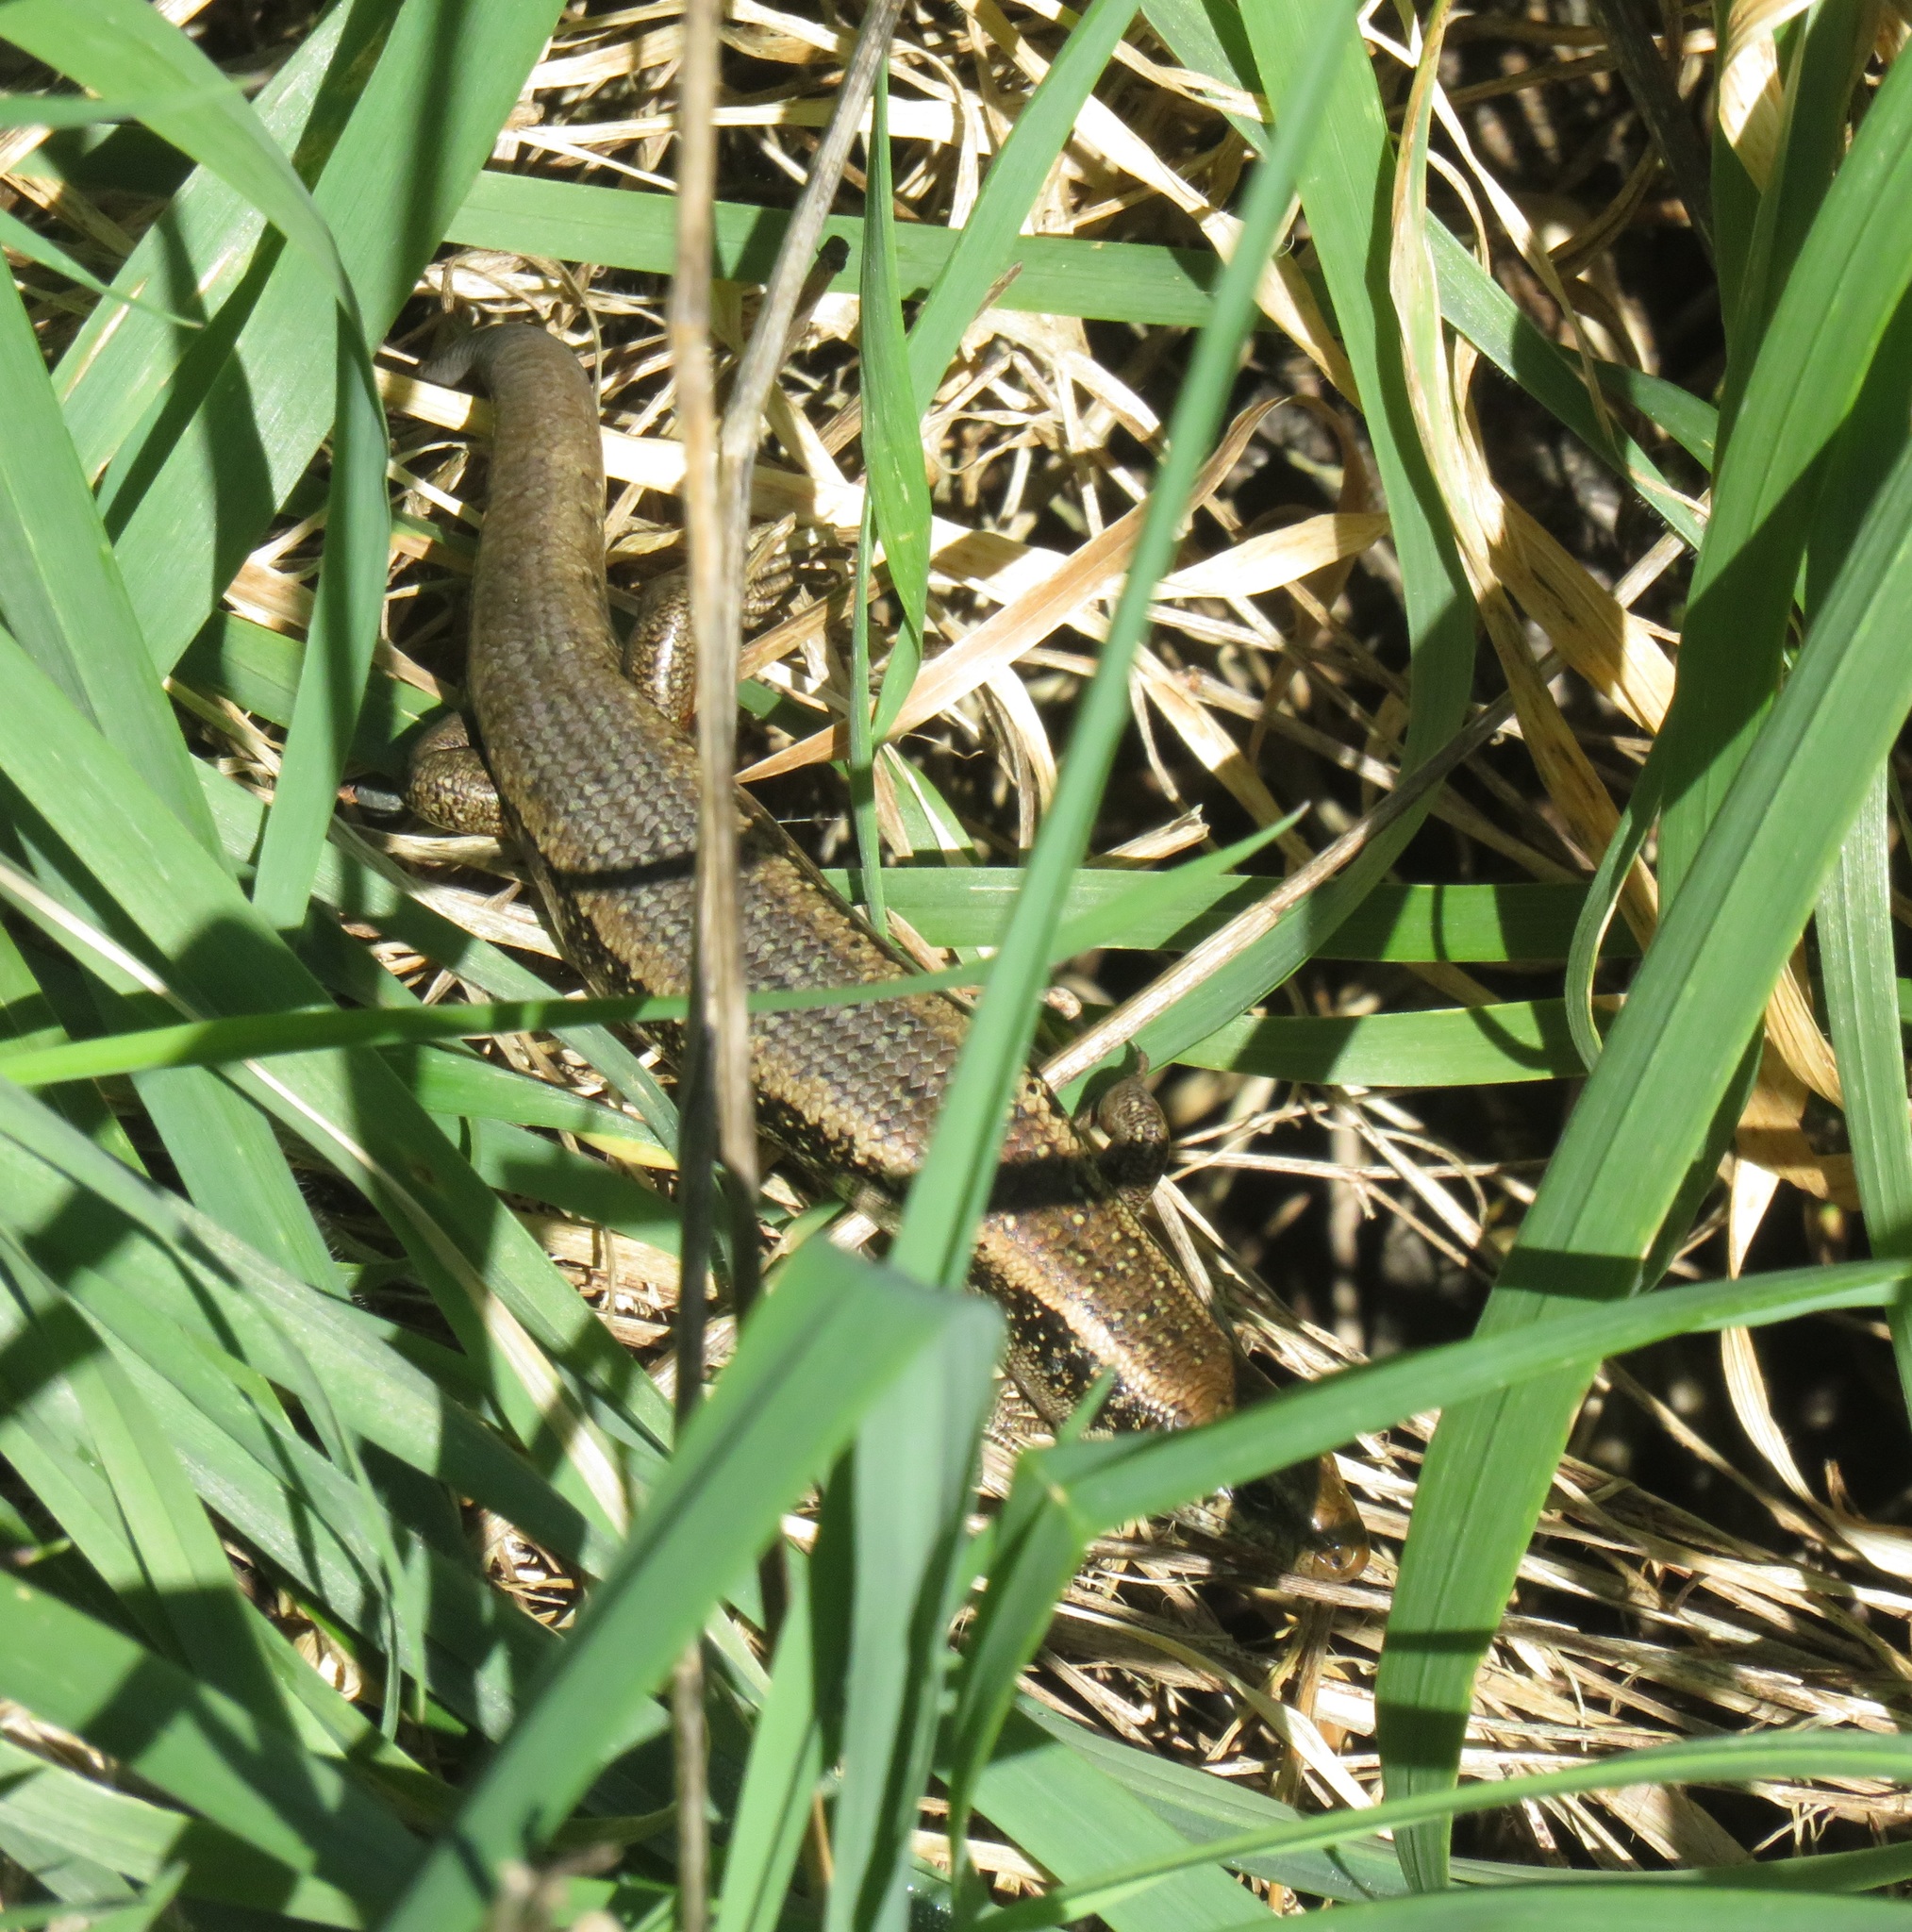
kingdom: Animalia
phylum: Chordata
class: Squamata
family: Scincidae
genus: Oligosoma
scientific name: Oligosoma kokowai
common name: Northern spotted skink
